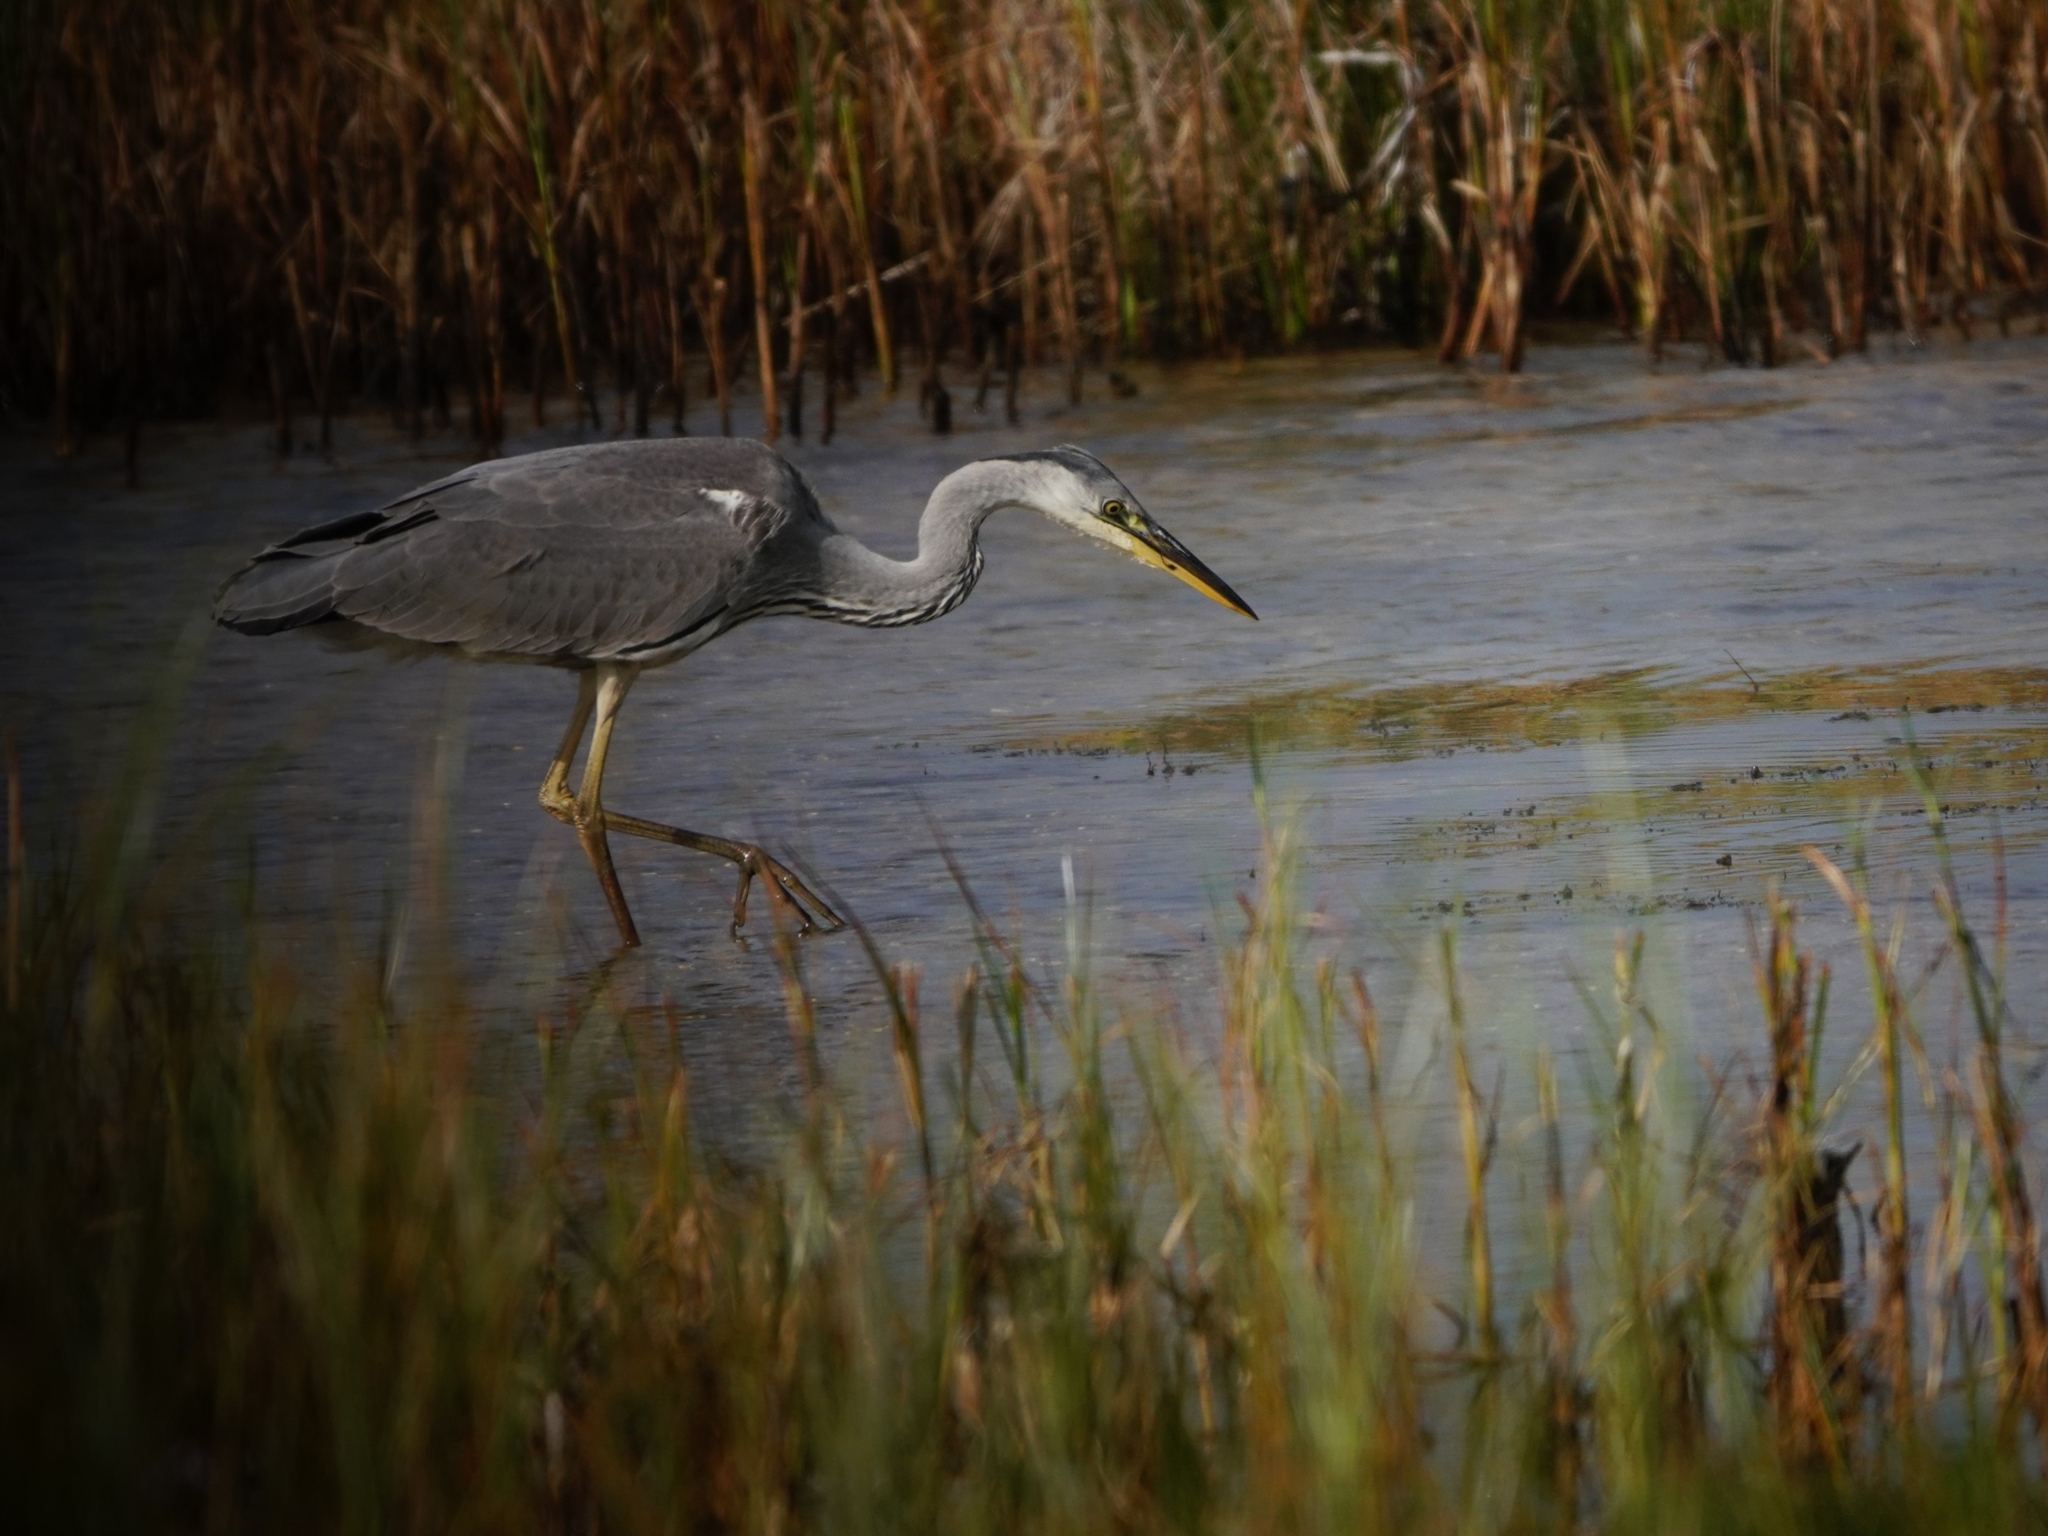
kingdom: Animalia
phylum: Chordata
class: Aves
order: Pelecaniformes
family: Ardeidae
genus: Ardea
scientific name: Ardea cinerea
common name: Grey heron
